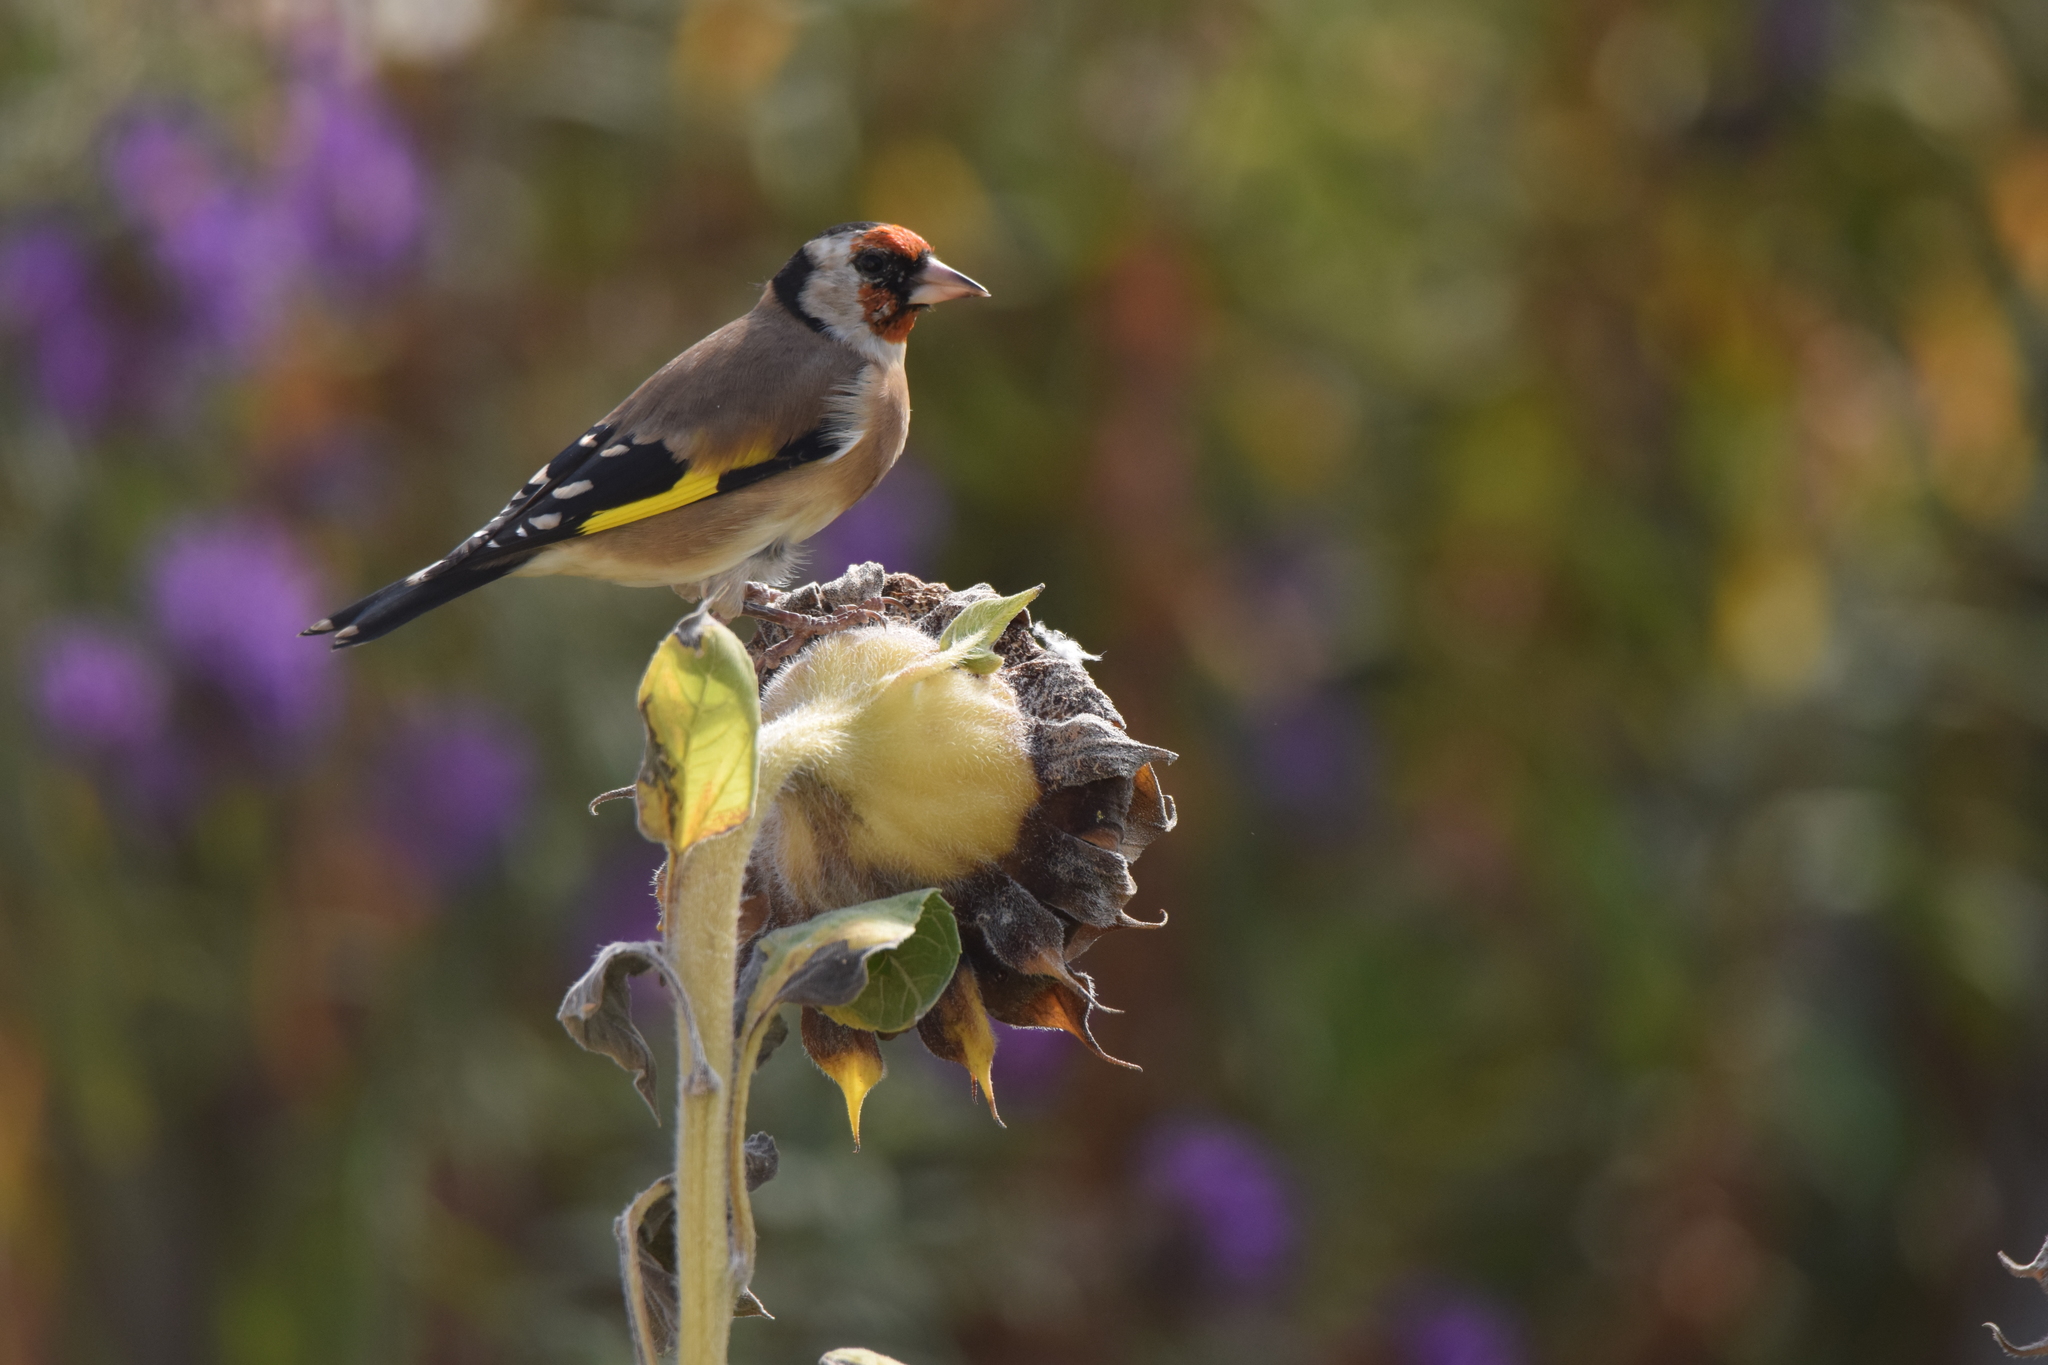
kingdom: Animalia
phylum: Chordata
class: Aves
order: Passeriformes
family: Fringillidae
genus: Carduelis
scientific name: Carduelis carduelis
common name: European goldfinch
